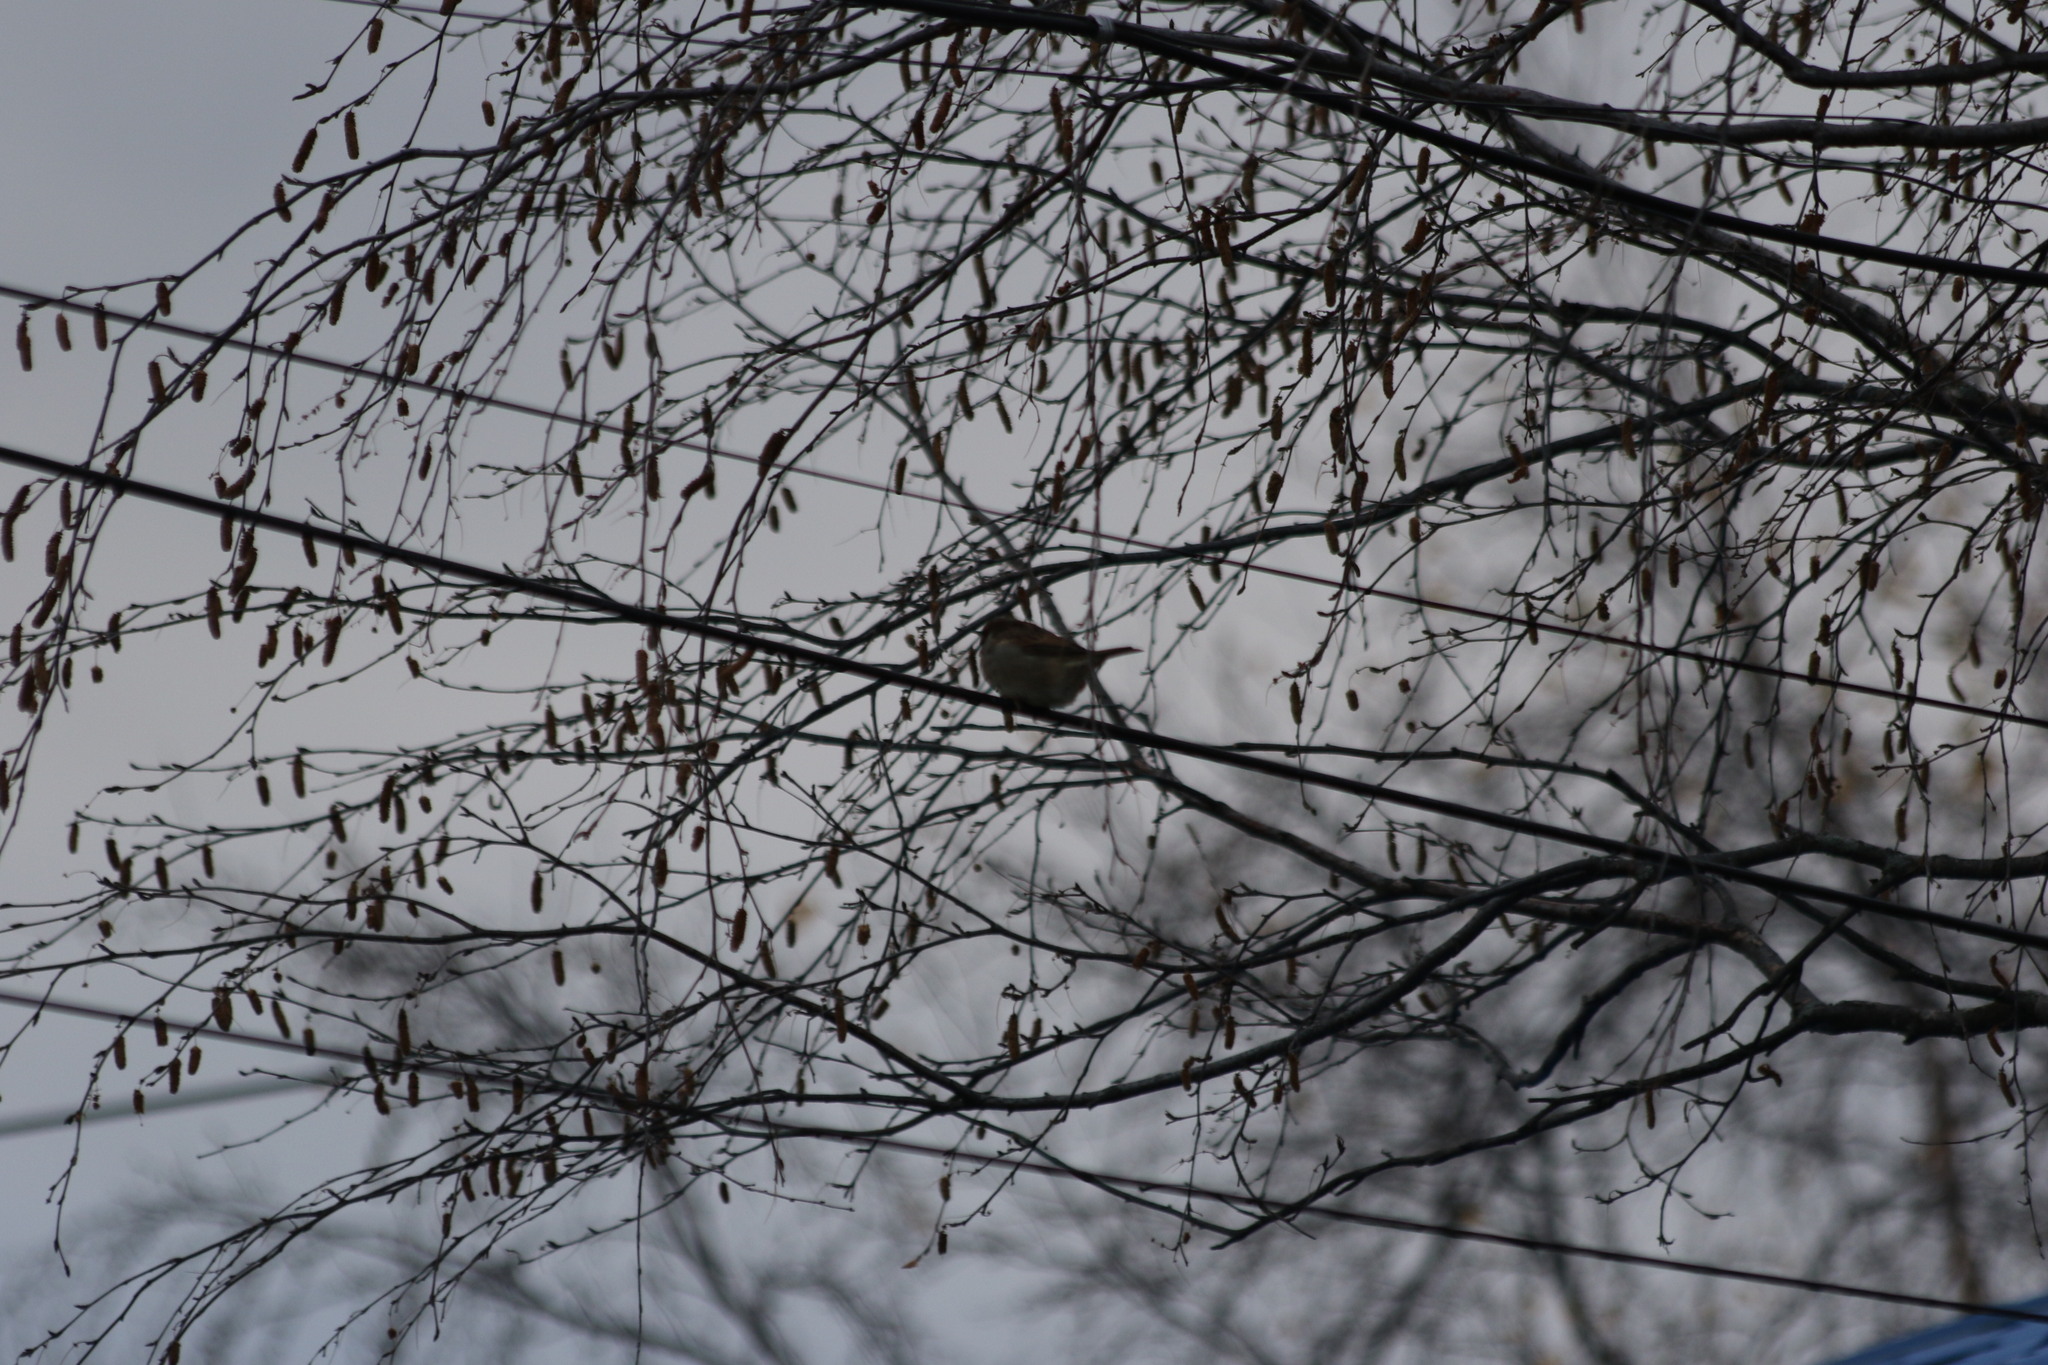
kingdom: Animalia
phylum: Chordata
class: Aves
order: Passeriformes
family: Passeridae
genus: Passer
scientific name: Passer montanus
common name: Eurasian tree sparrow
